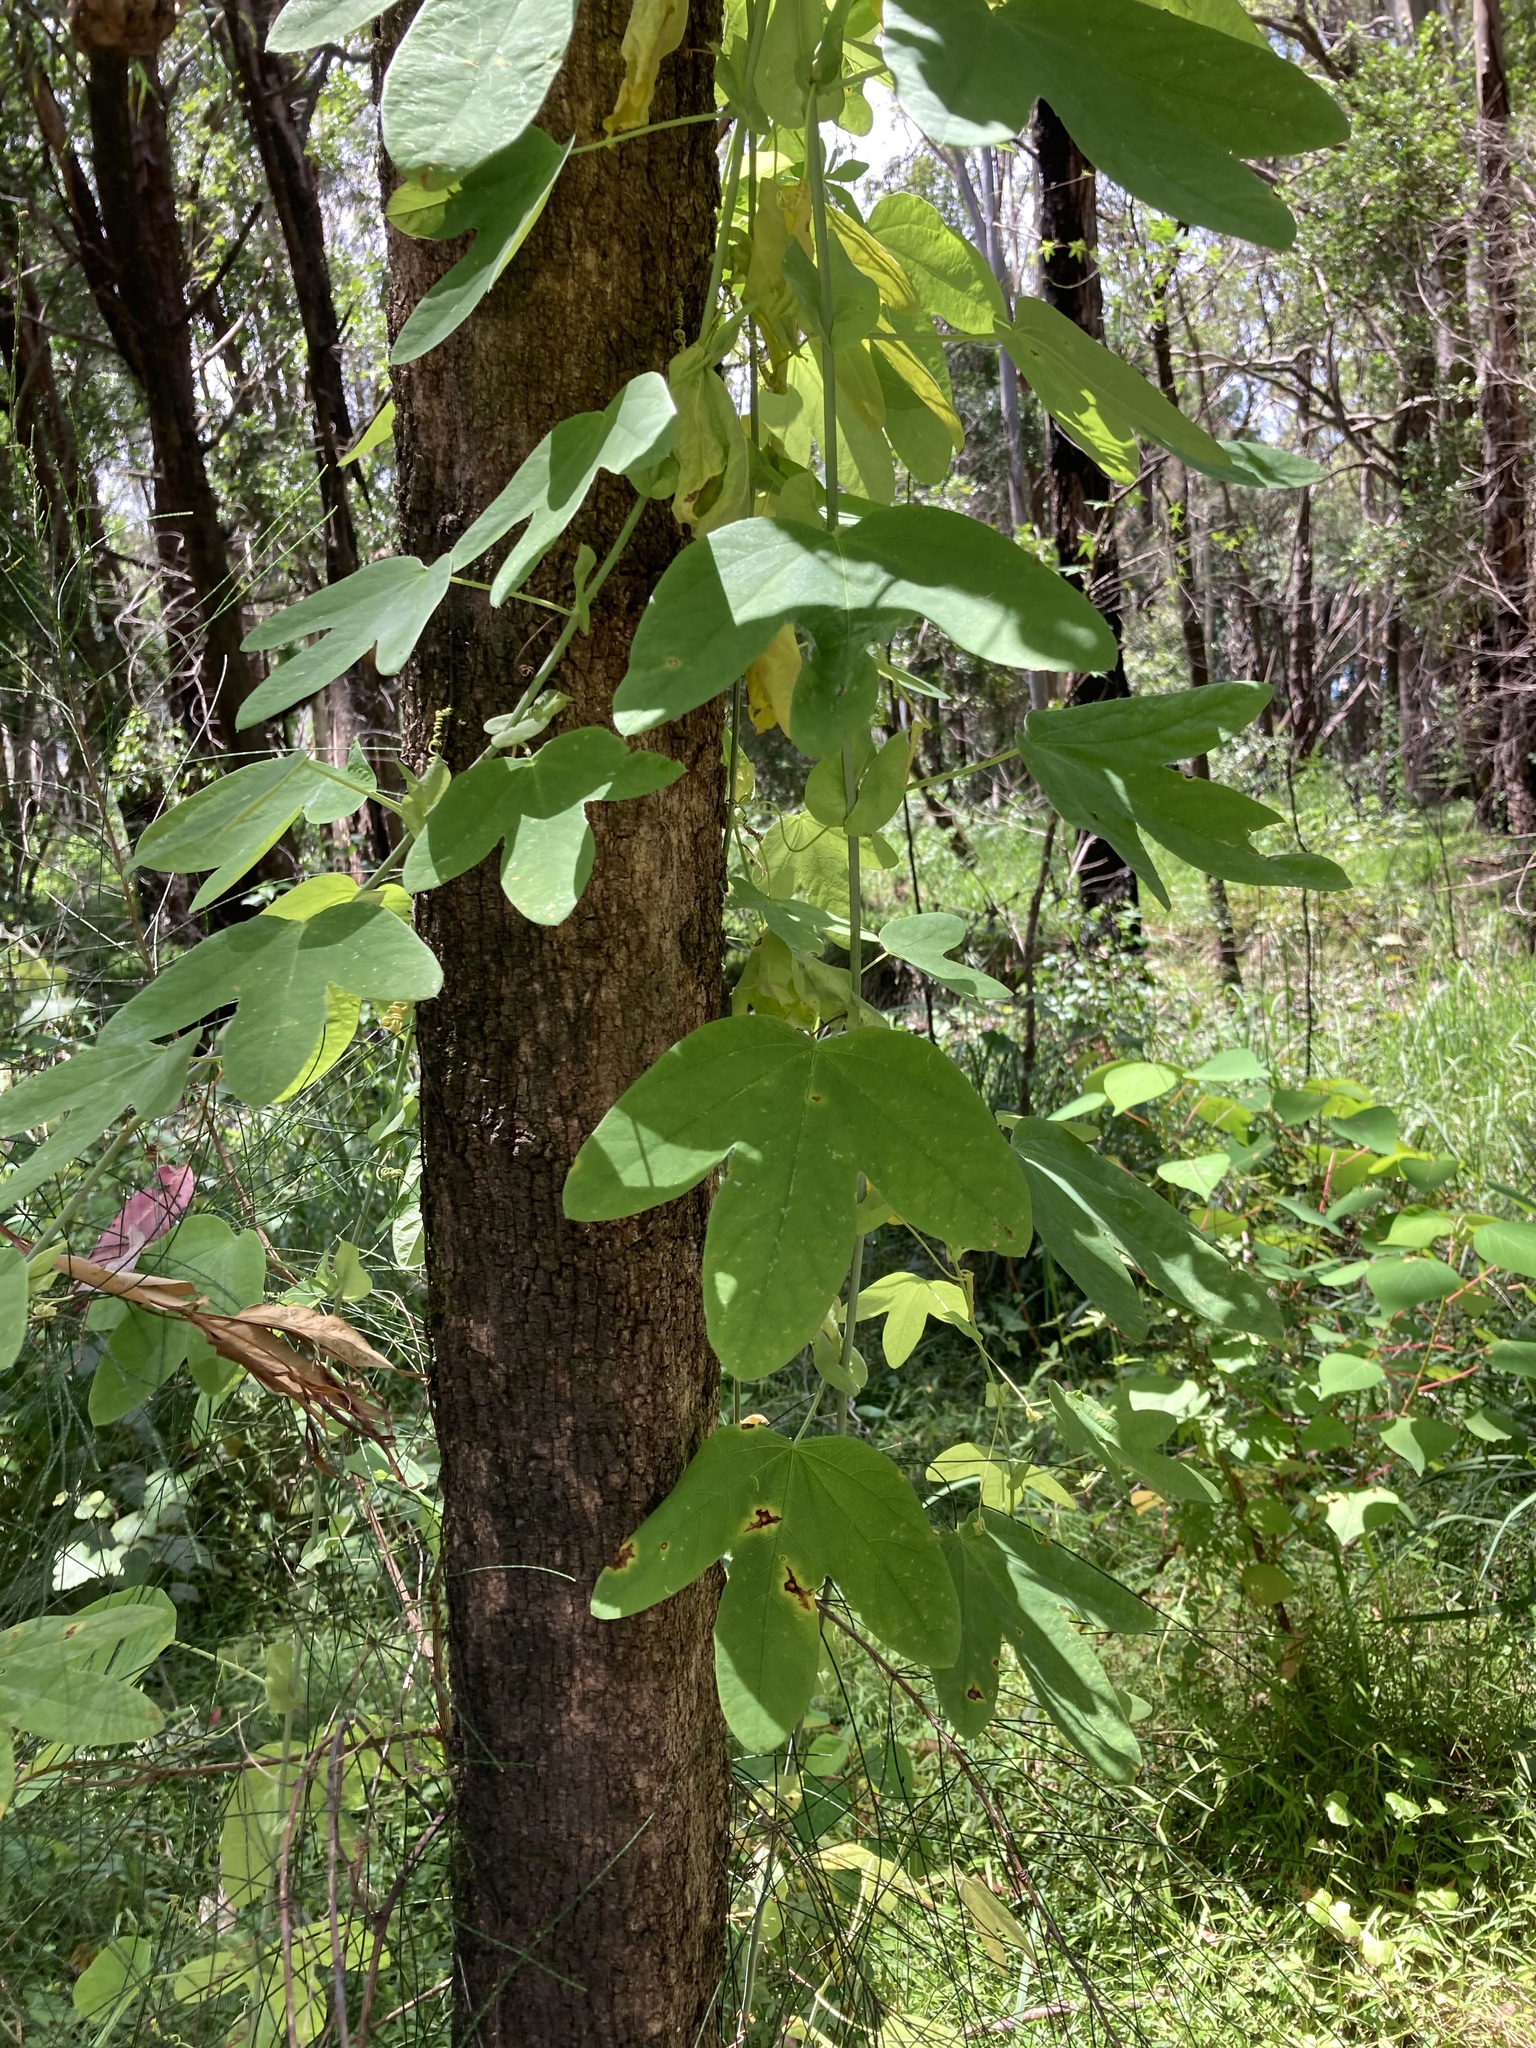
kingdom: Plantae
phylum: Tracheophyta
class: Magnoliopsida
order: Malpighiales
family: Passifloraceae
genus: Passiflora
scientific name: Passiflora subpeltata
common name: White passionflower
